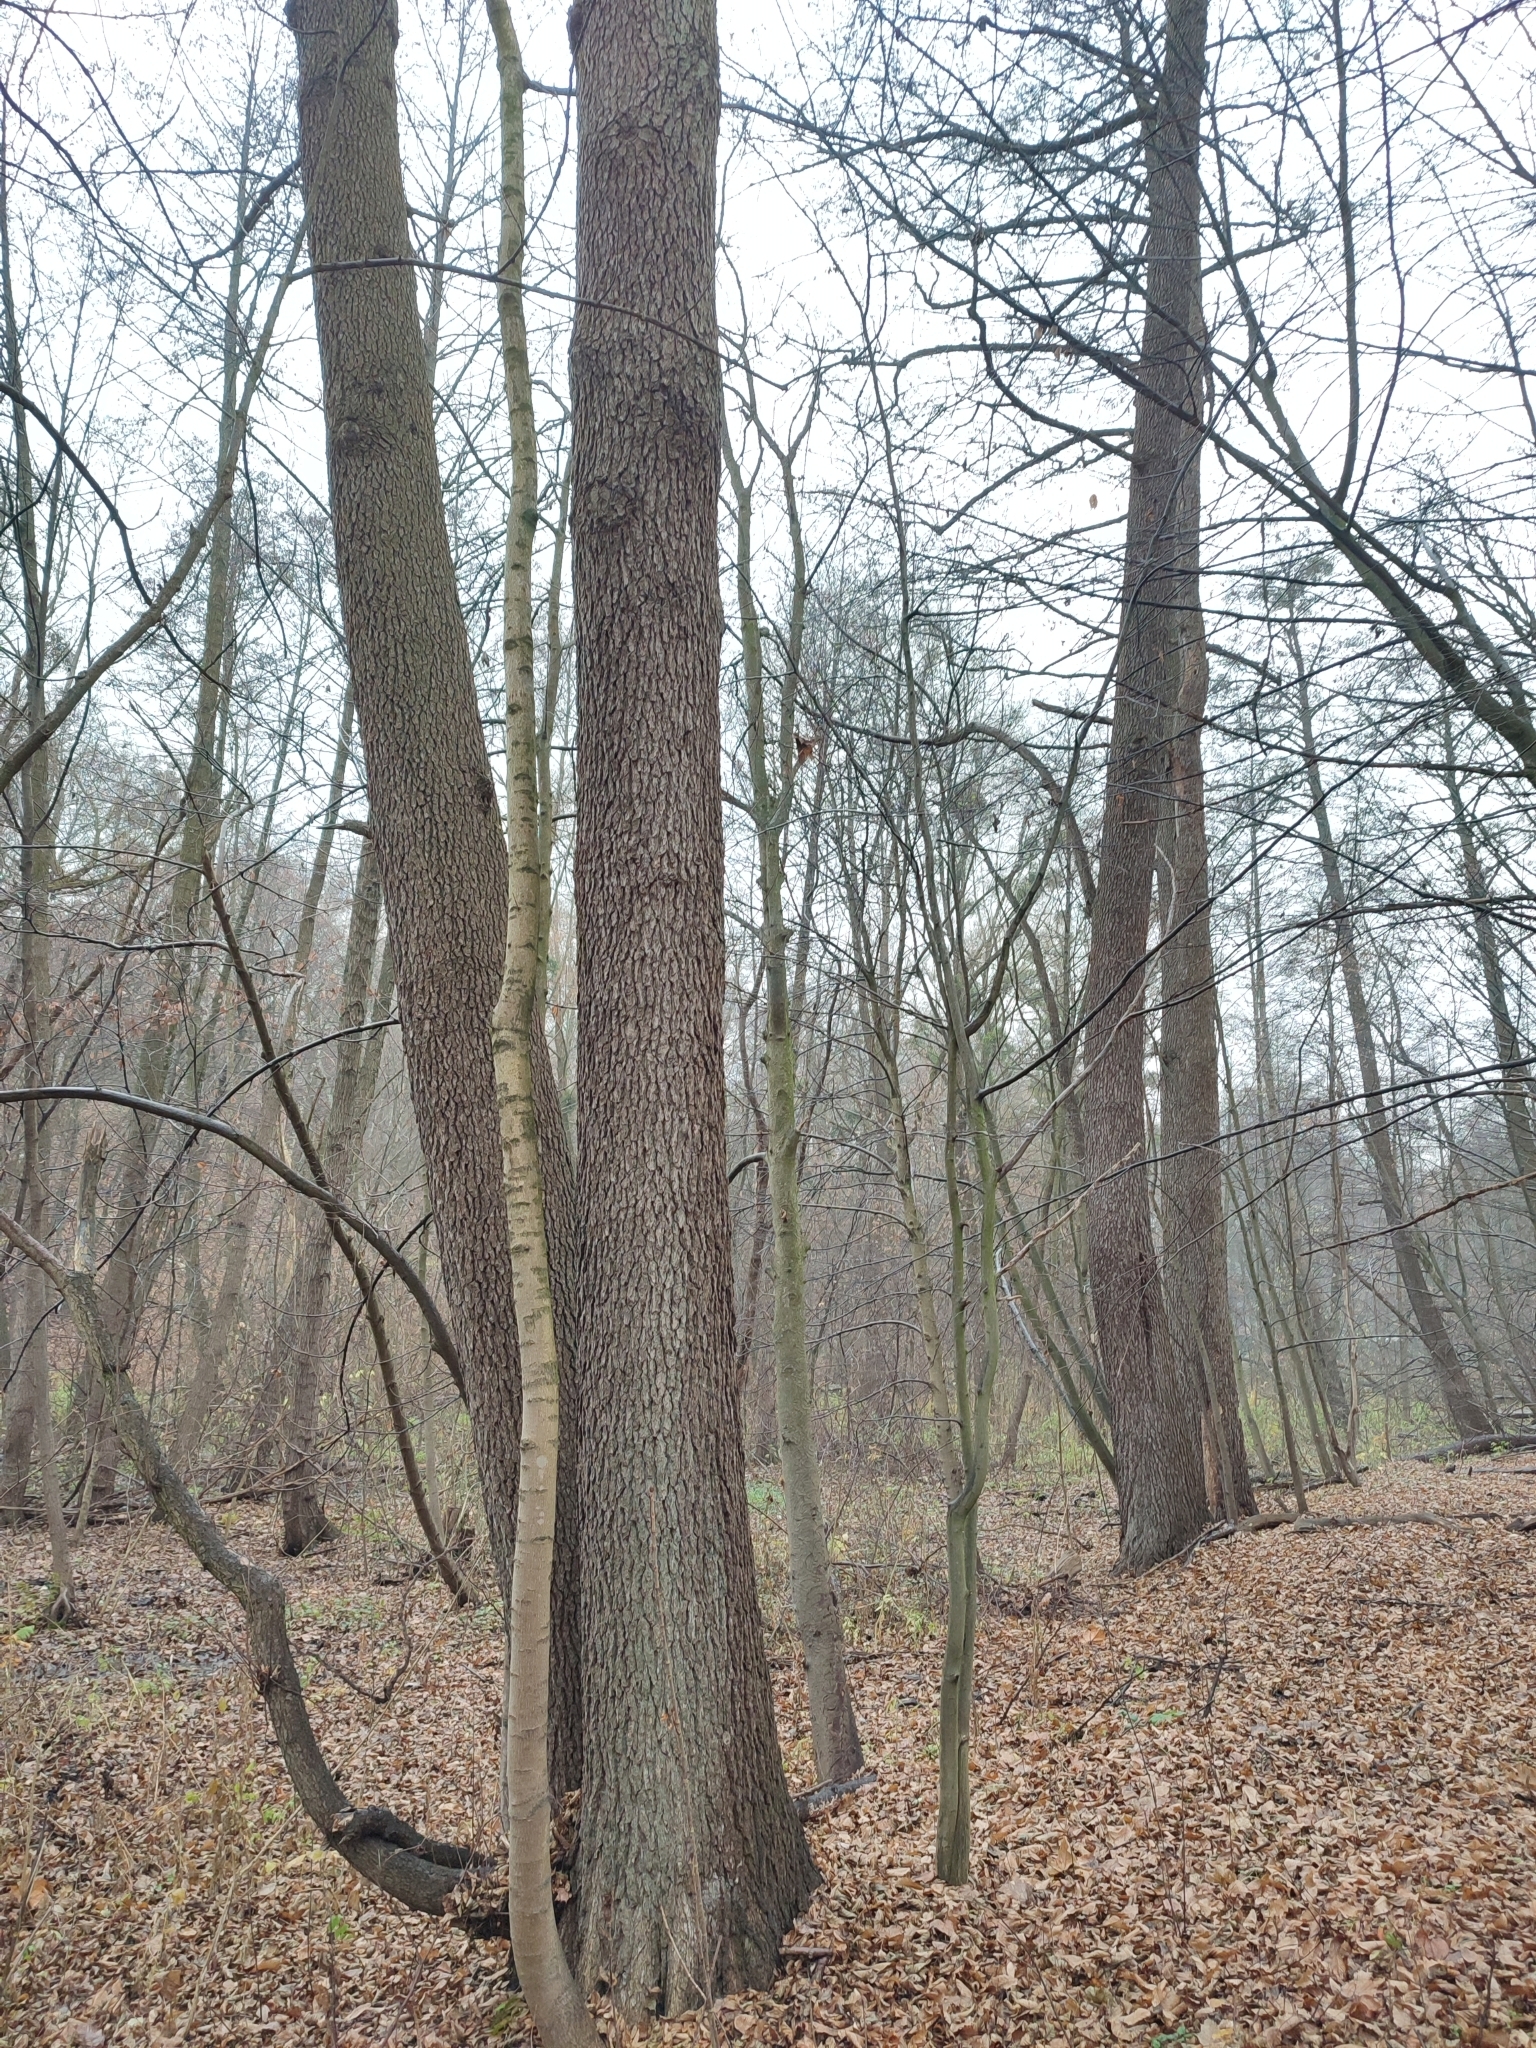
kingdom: Plantae
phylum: Tracheophyta
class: Magnoliopsida
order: Fagales
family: Betulaceae
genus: Alnus
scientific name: Alnus glutinosa
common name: Black alder
